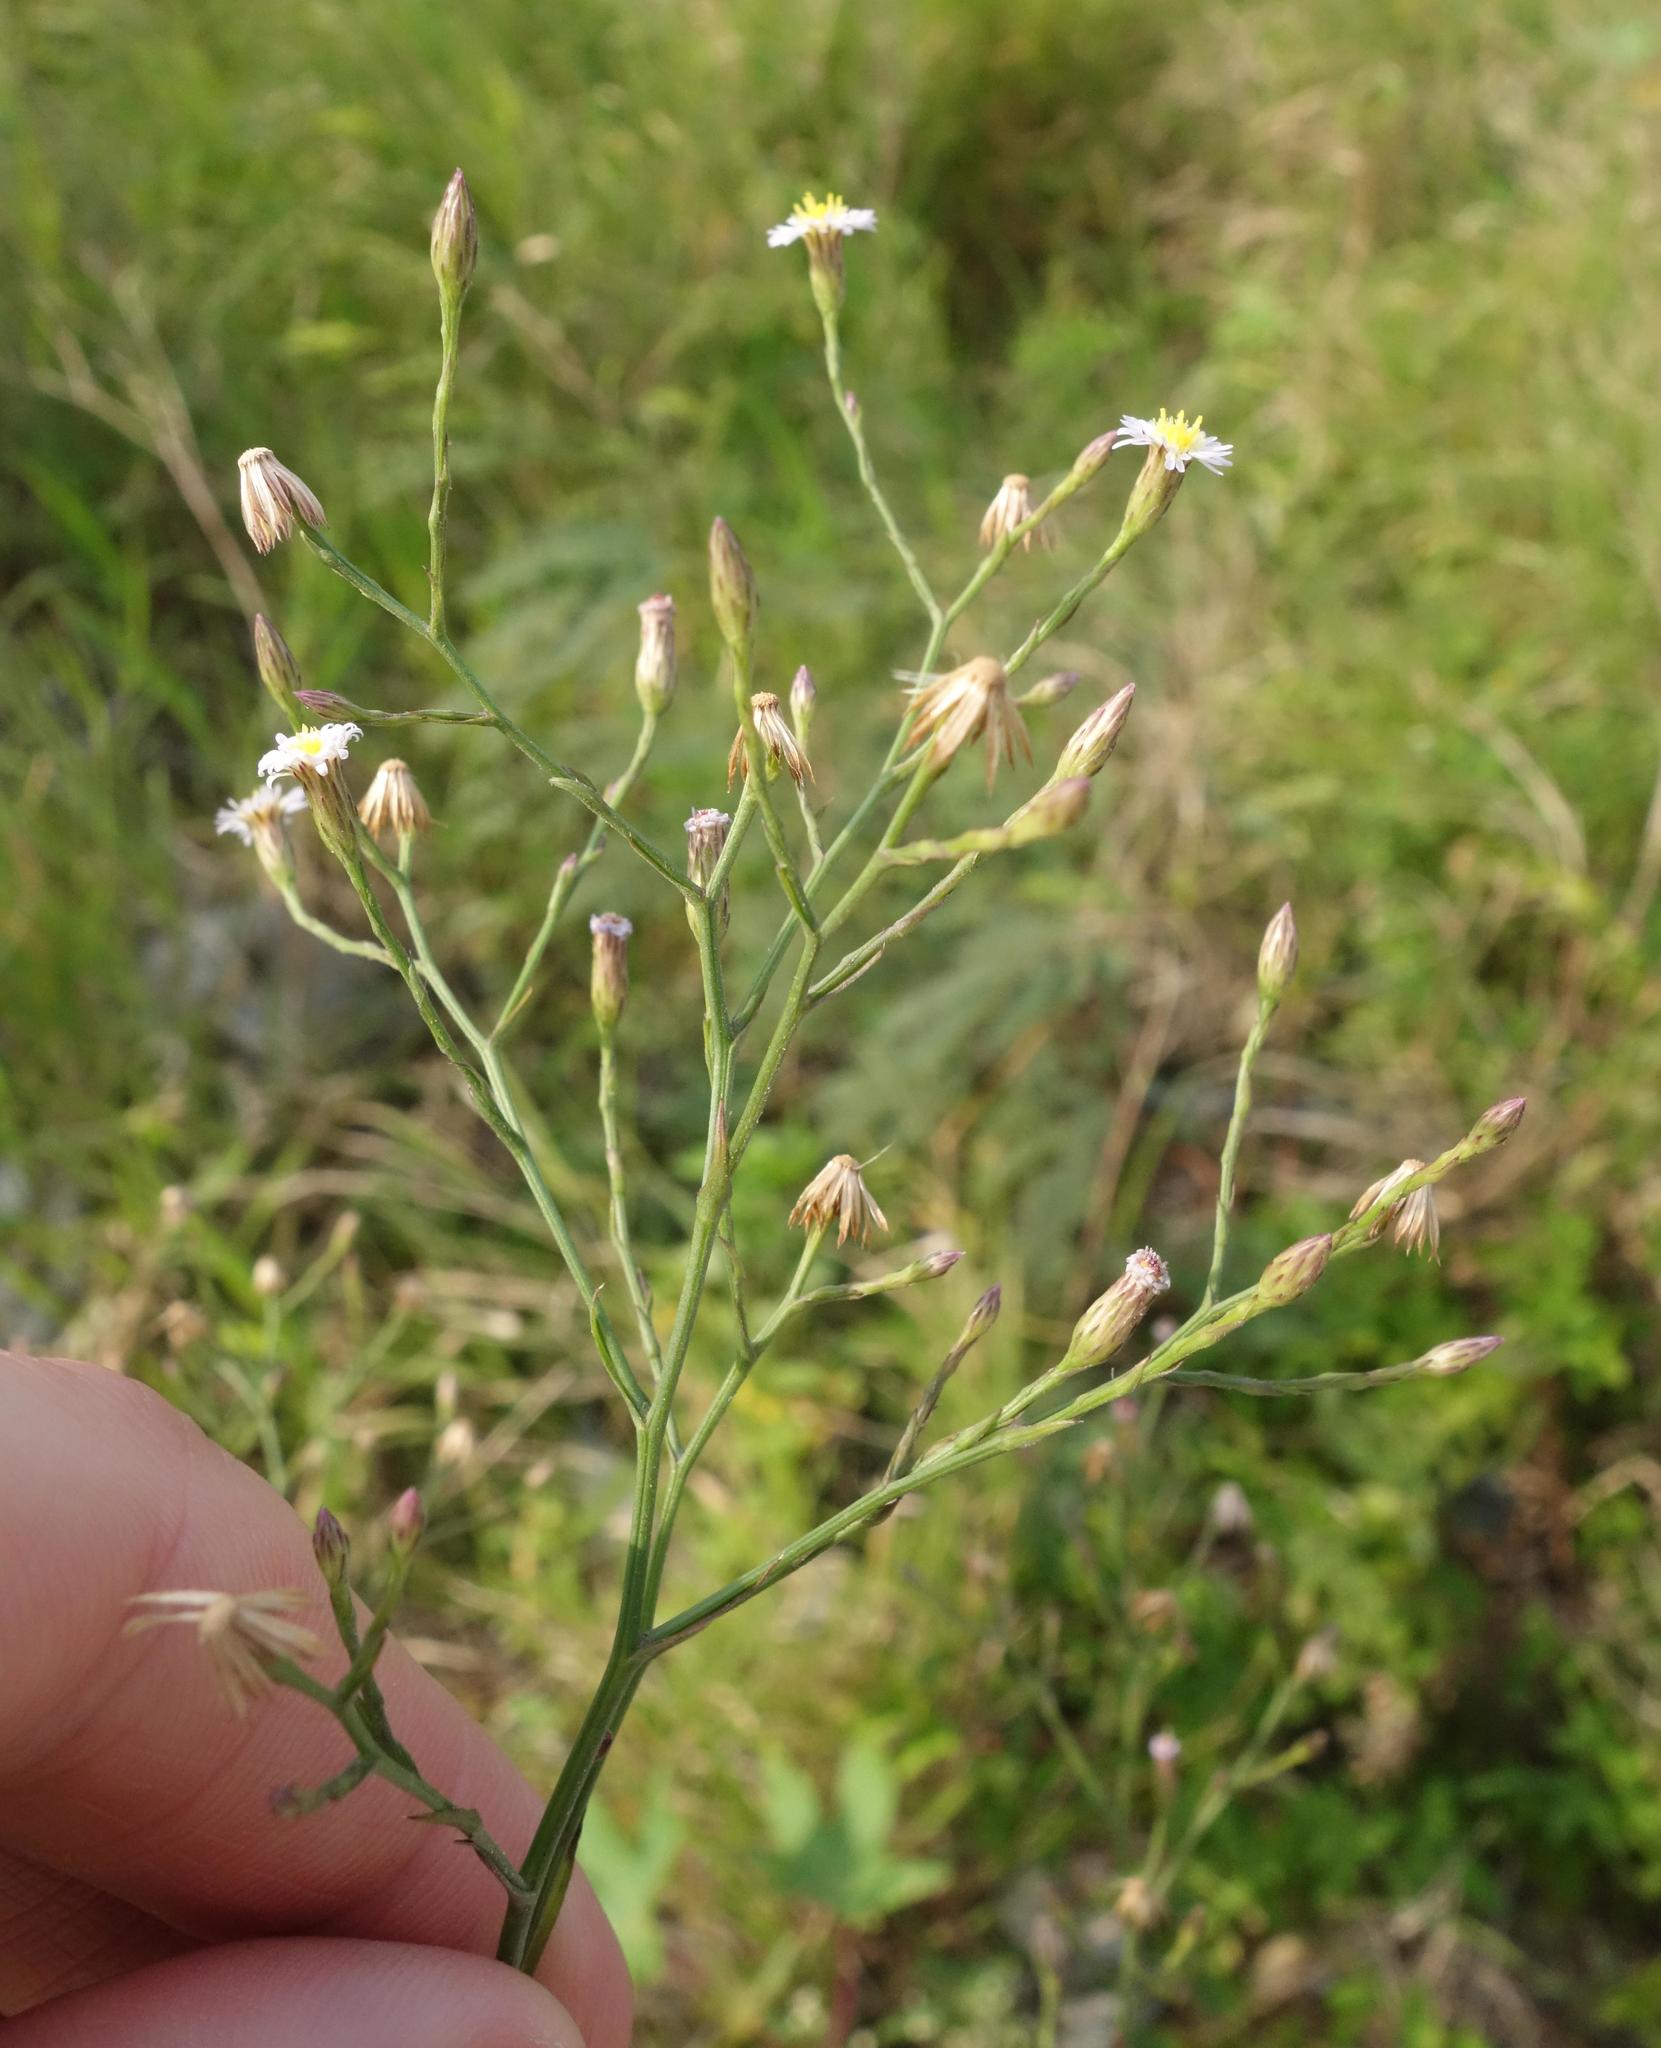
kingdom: Plantae
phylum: Tracheophyta
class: Magnoliopsida
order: Asterales
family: Asteraceae
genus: Symphyotrichum
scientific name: Symphyotrichum subulatum
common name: Annual saltmarsh aster
